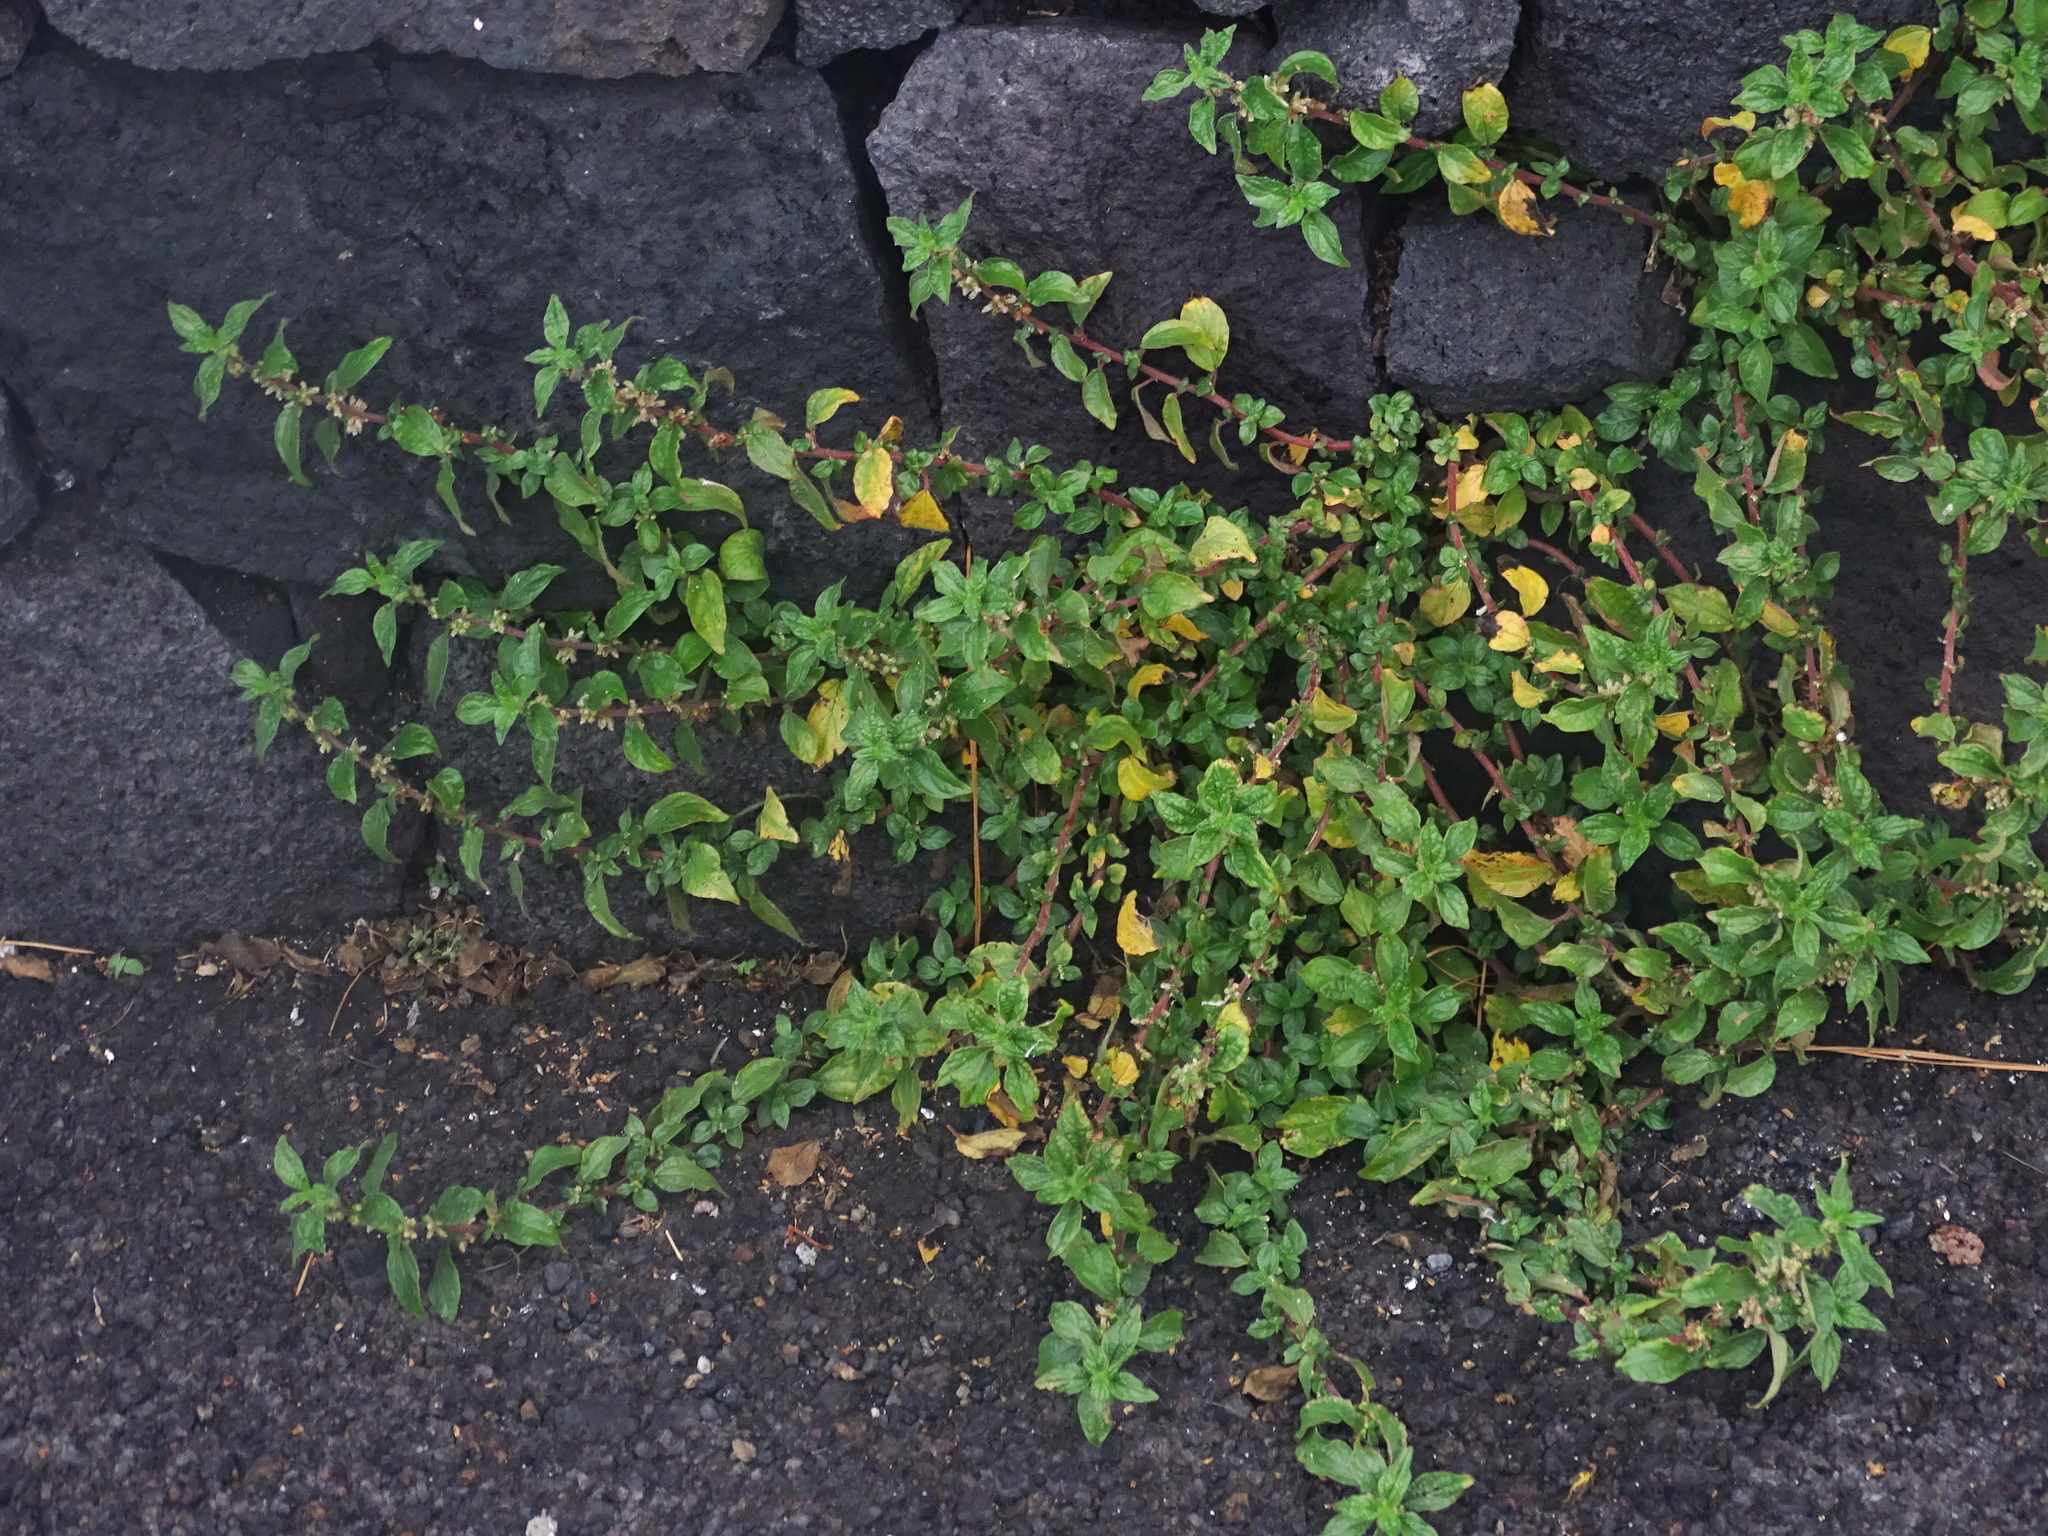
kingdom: Plantae
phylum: Tracheophyta
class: Magnoliopsida
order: Rosales
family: Urticaceae
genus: Parietaria
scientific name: Parietaria judaica
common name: Pellitory-of-the-wall
